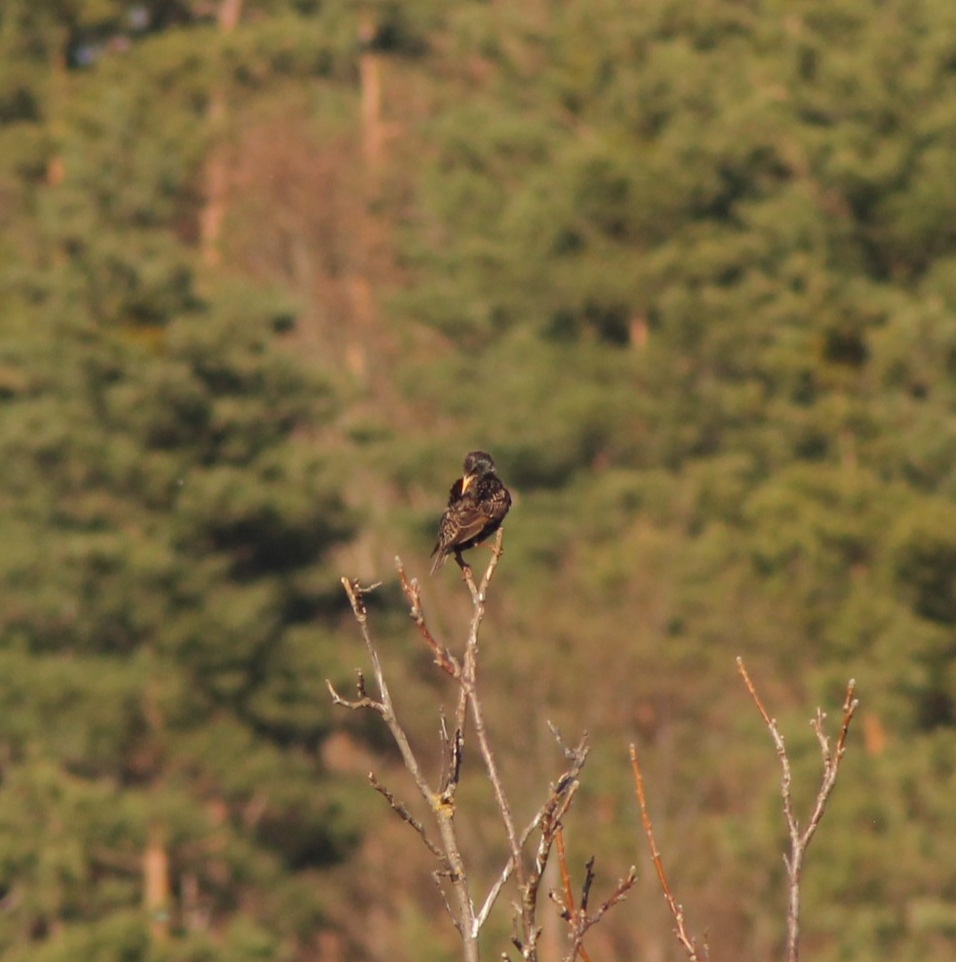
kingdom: Animalia
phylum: Chordata
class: Aves
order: Passeriformes
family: Sturnidae
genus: Sturnus
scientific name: Sturnus vulgaris
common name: Common starling
